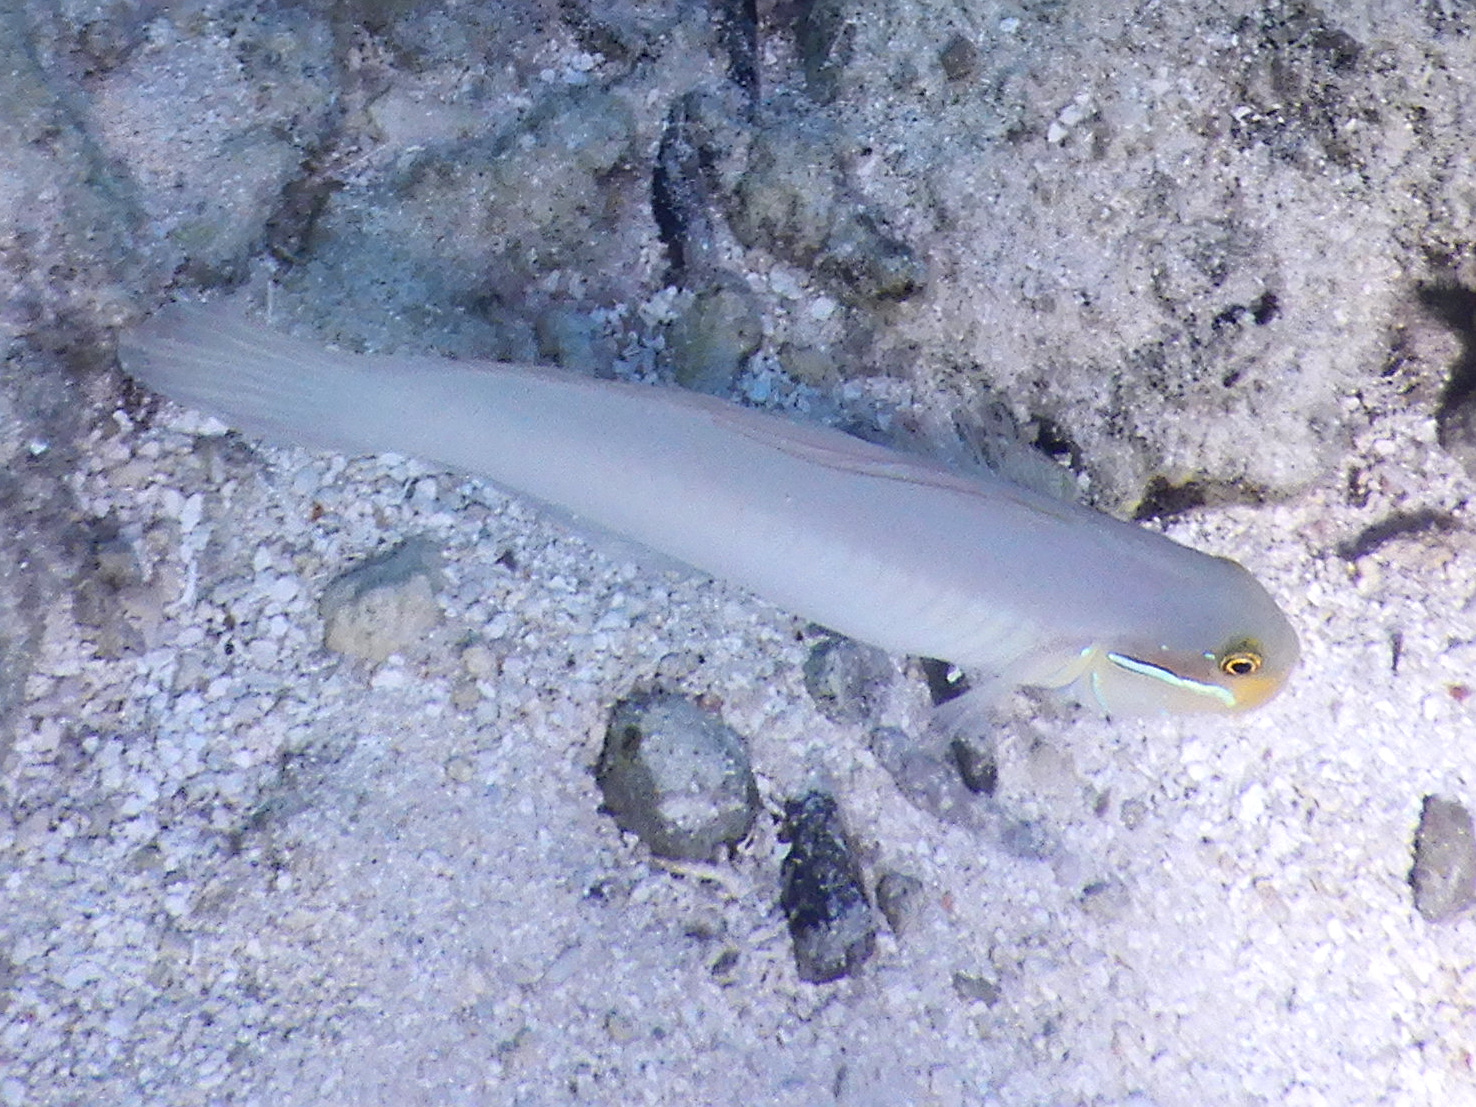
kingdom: Animalia
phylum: Chordata
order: Perciformes
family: Gobiidae
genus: Valenciennea
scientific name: Valenciennea strigata
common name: Blueband goby
